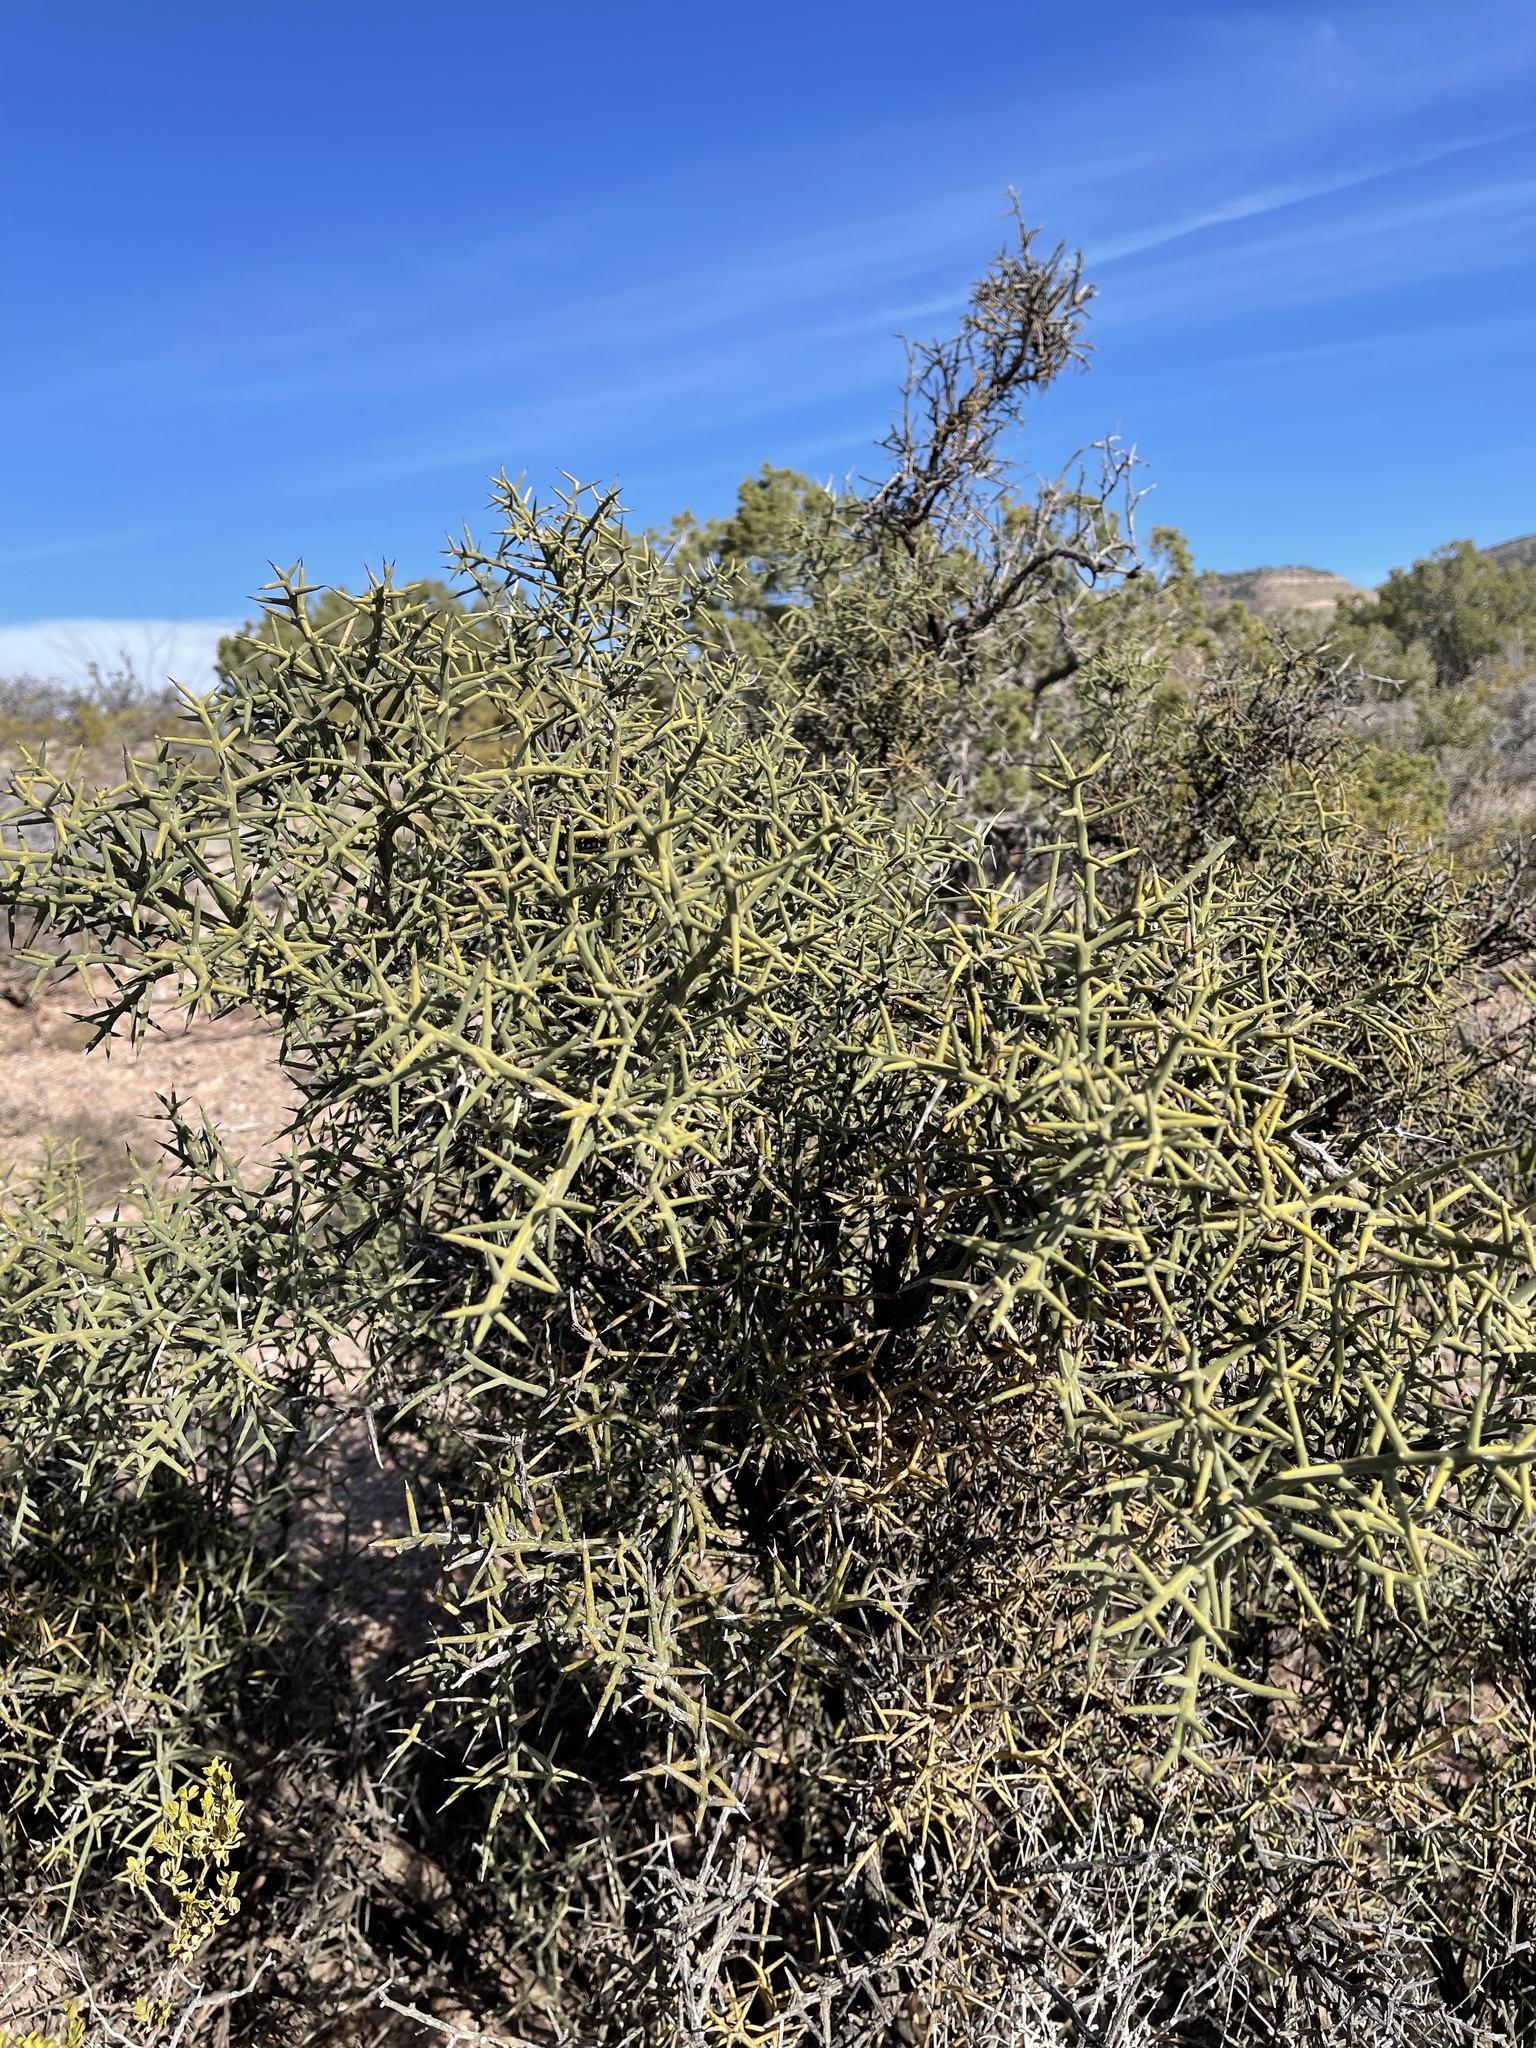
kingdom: Plantae
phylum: Tracheophyta
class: Magnoliopsida
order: Brassicales
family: Koeberliniaceae
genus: Koeberlinia
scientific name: Koeberlinia spinosa
